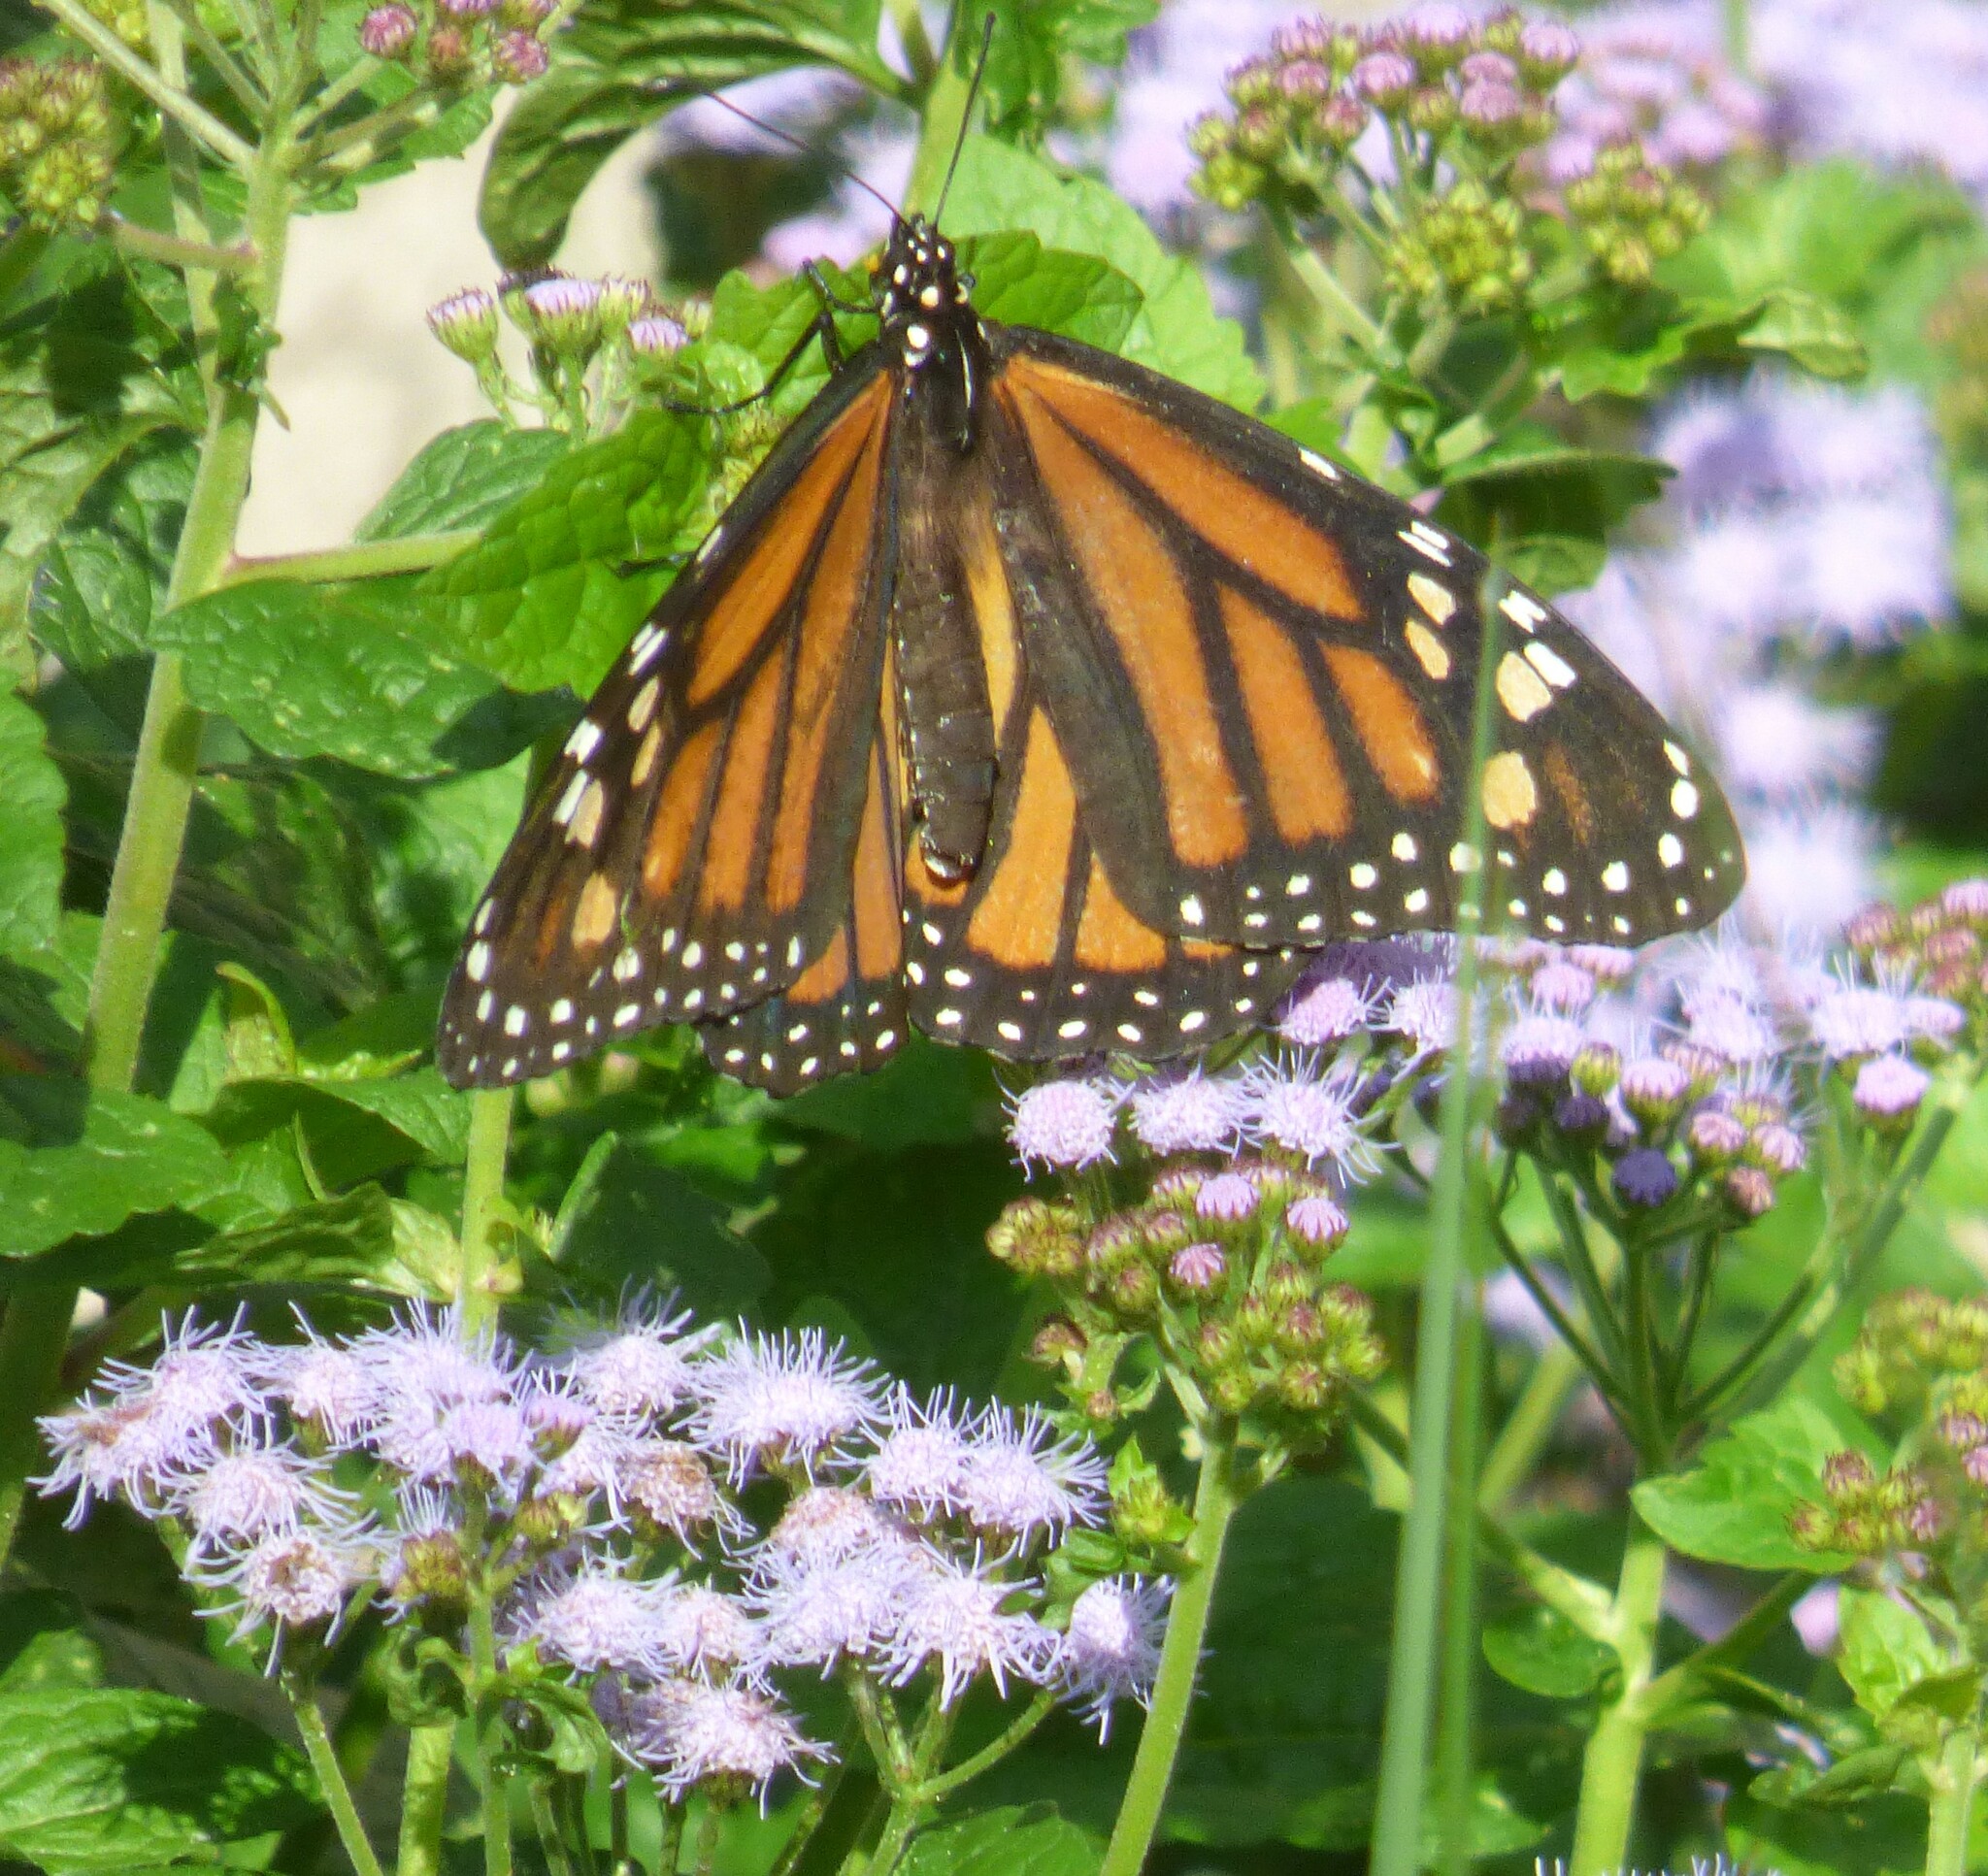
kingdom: Animalia
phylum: Arthropoda
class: Insecta
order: Lepidoptera
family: Nymphalidae
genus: Danaus
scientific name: Danaus plexippus
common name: Monarch
